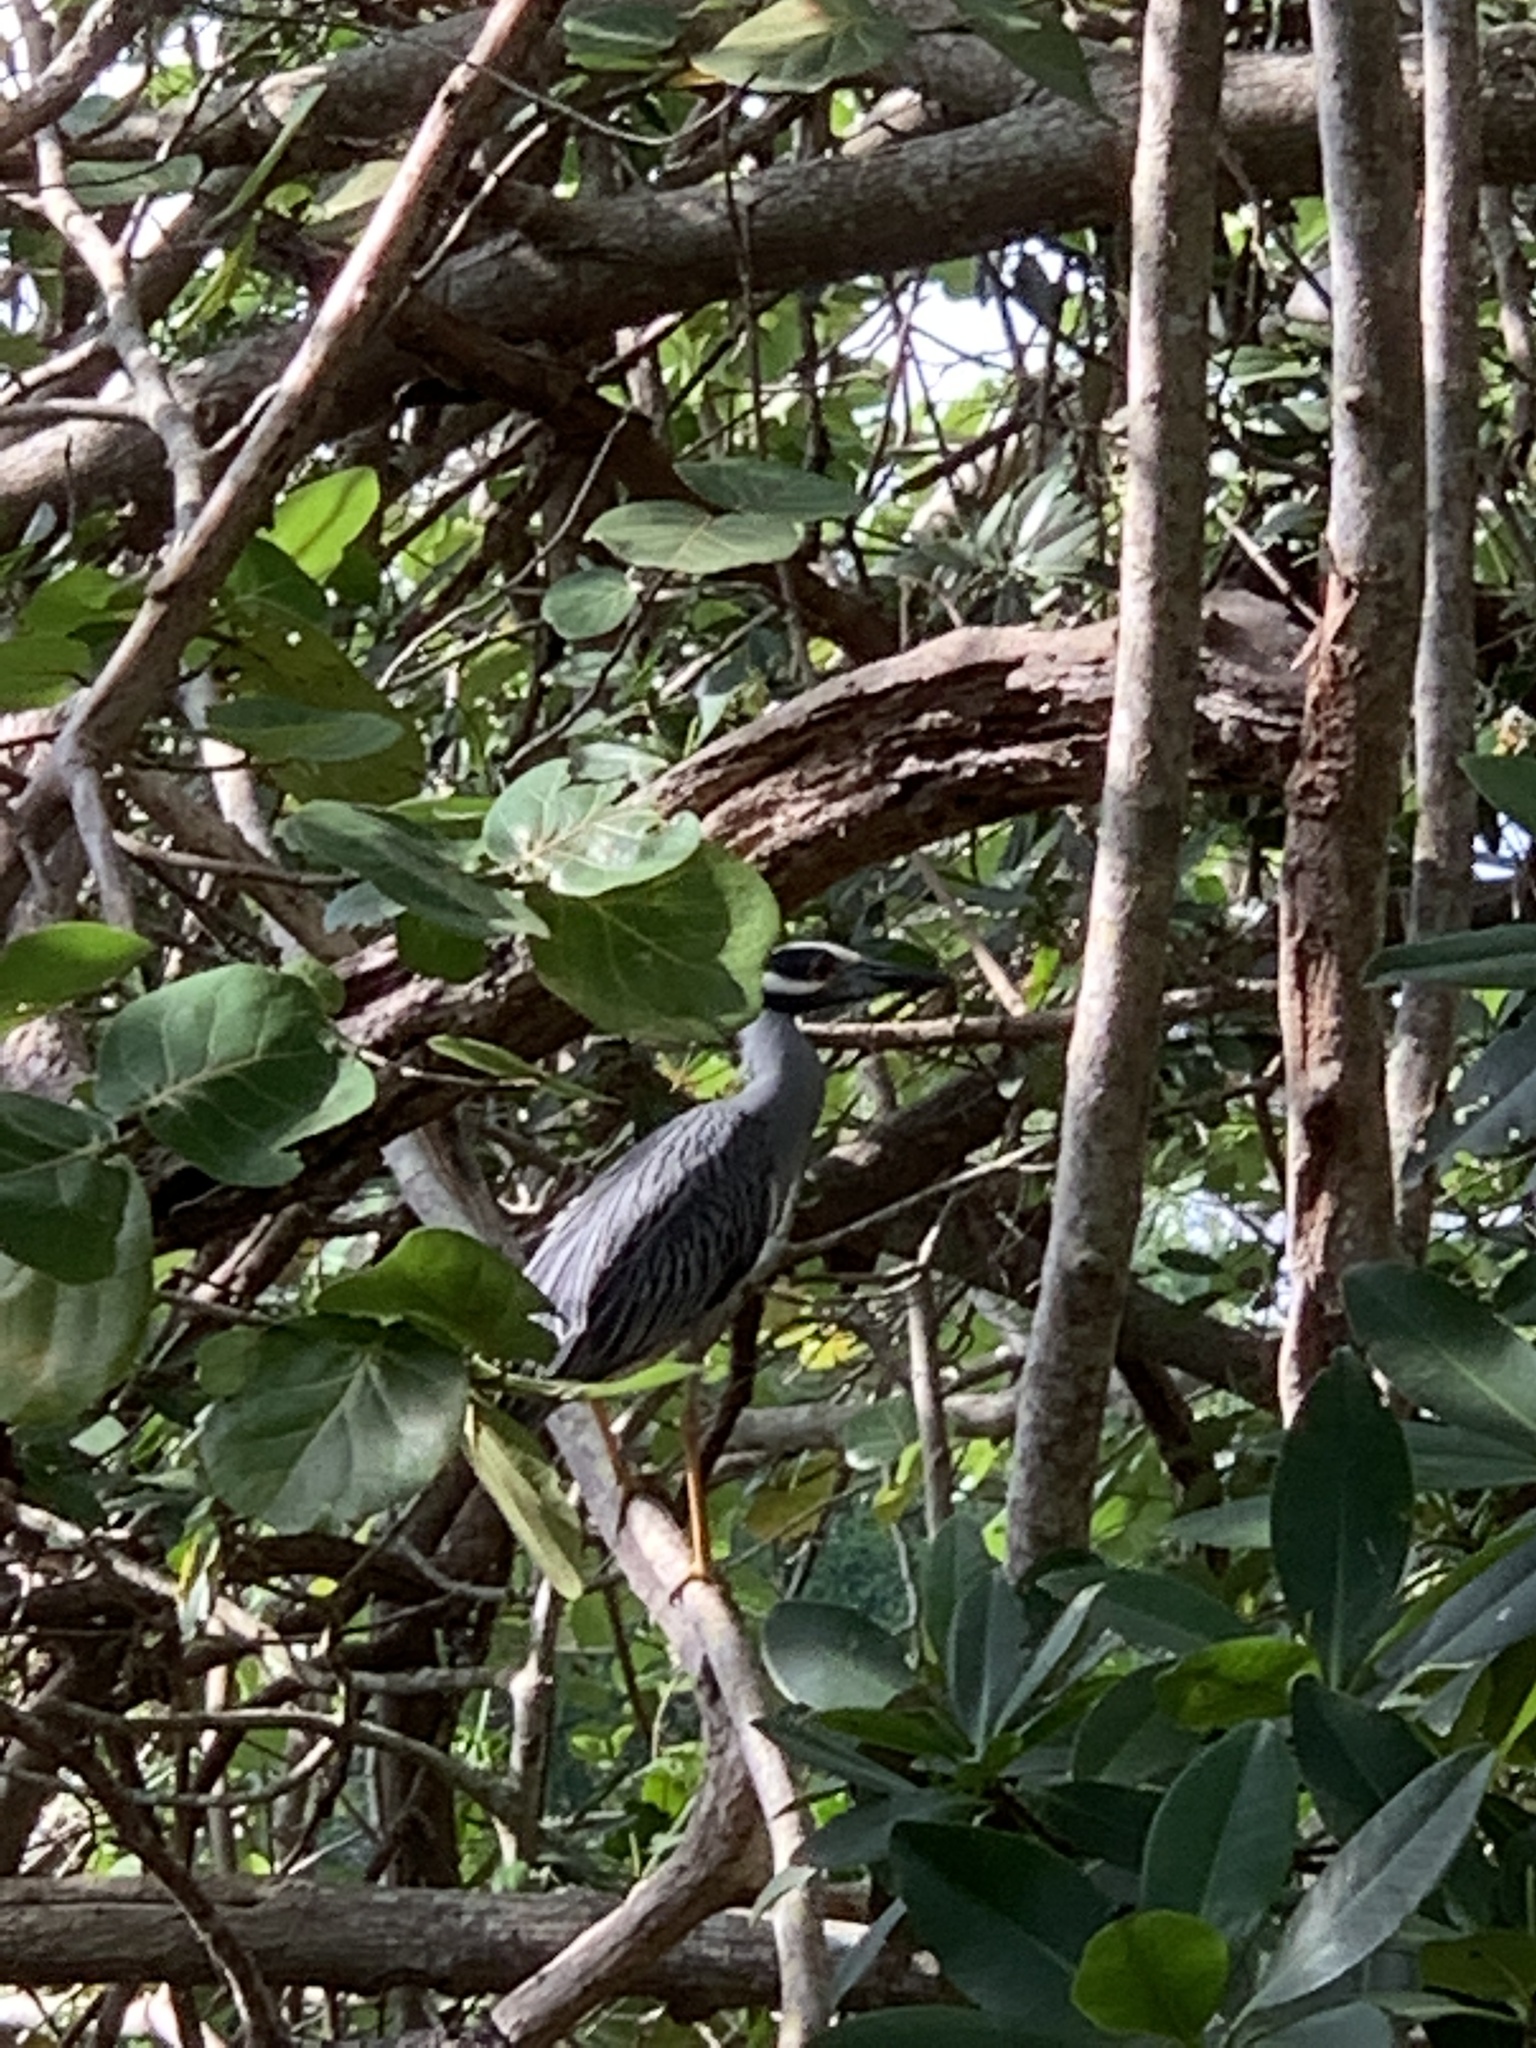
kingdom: Animalia
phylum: Chordata
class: Aves
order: Pelecaniformes
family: Ardeidae
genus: Nyctanassa
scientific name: Nyctanassa violacea
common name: Yellow-crowned night heron
